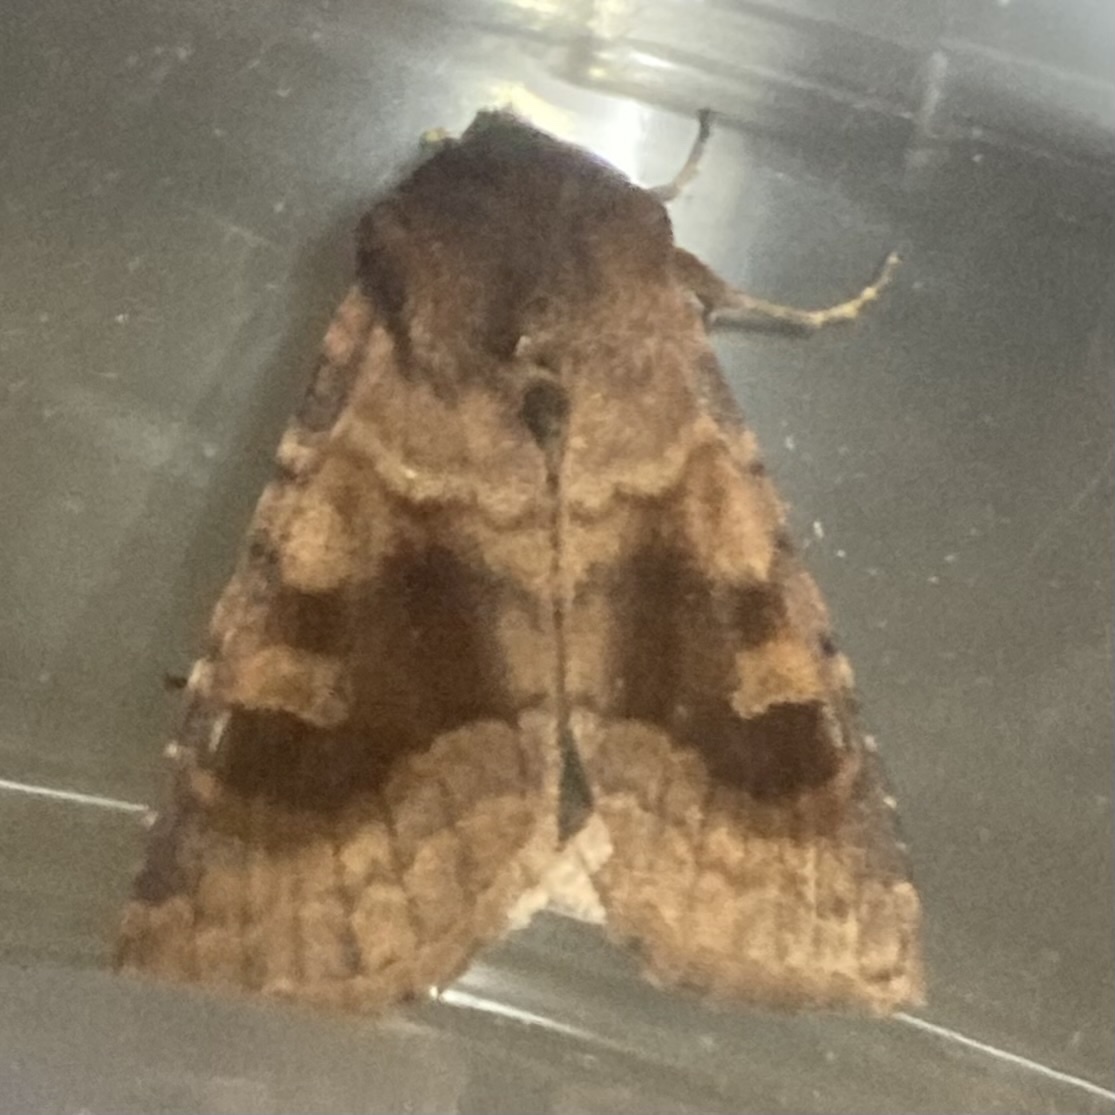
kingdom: Animalia
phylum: Arthropoda
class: Insecta
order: Lepidoptera
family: Noctuidae
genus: Nephelodes
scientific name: Nephelodes minians
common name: Bronzed cutworm
